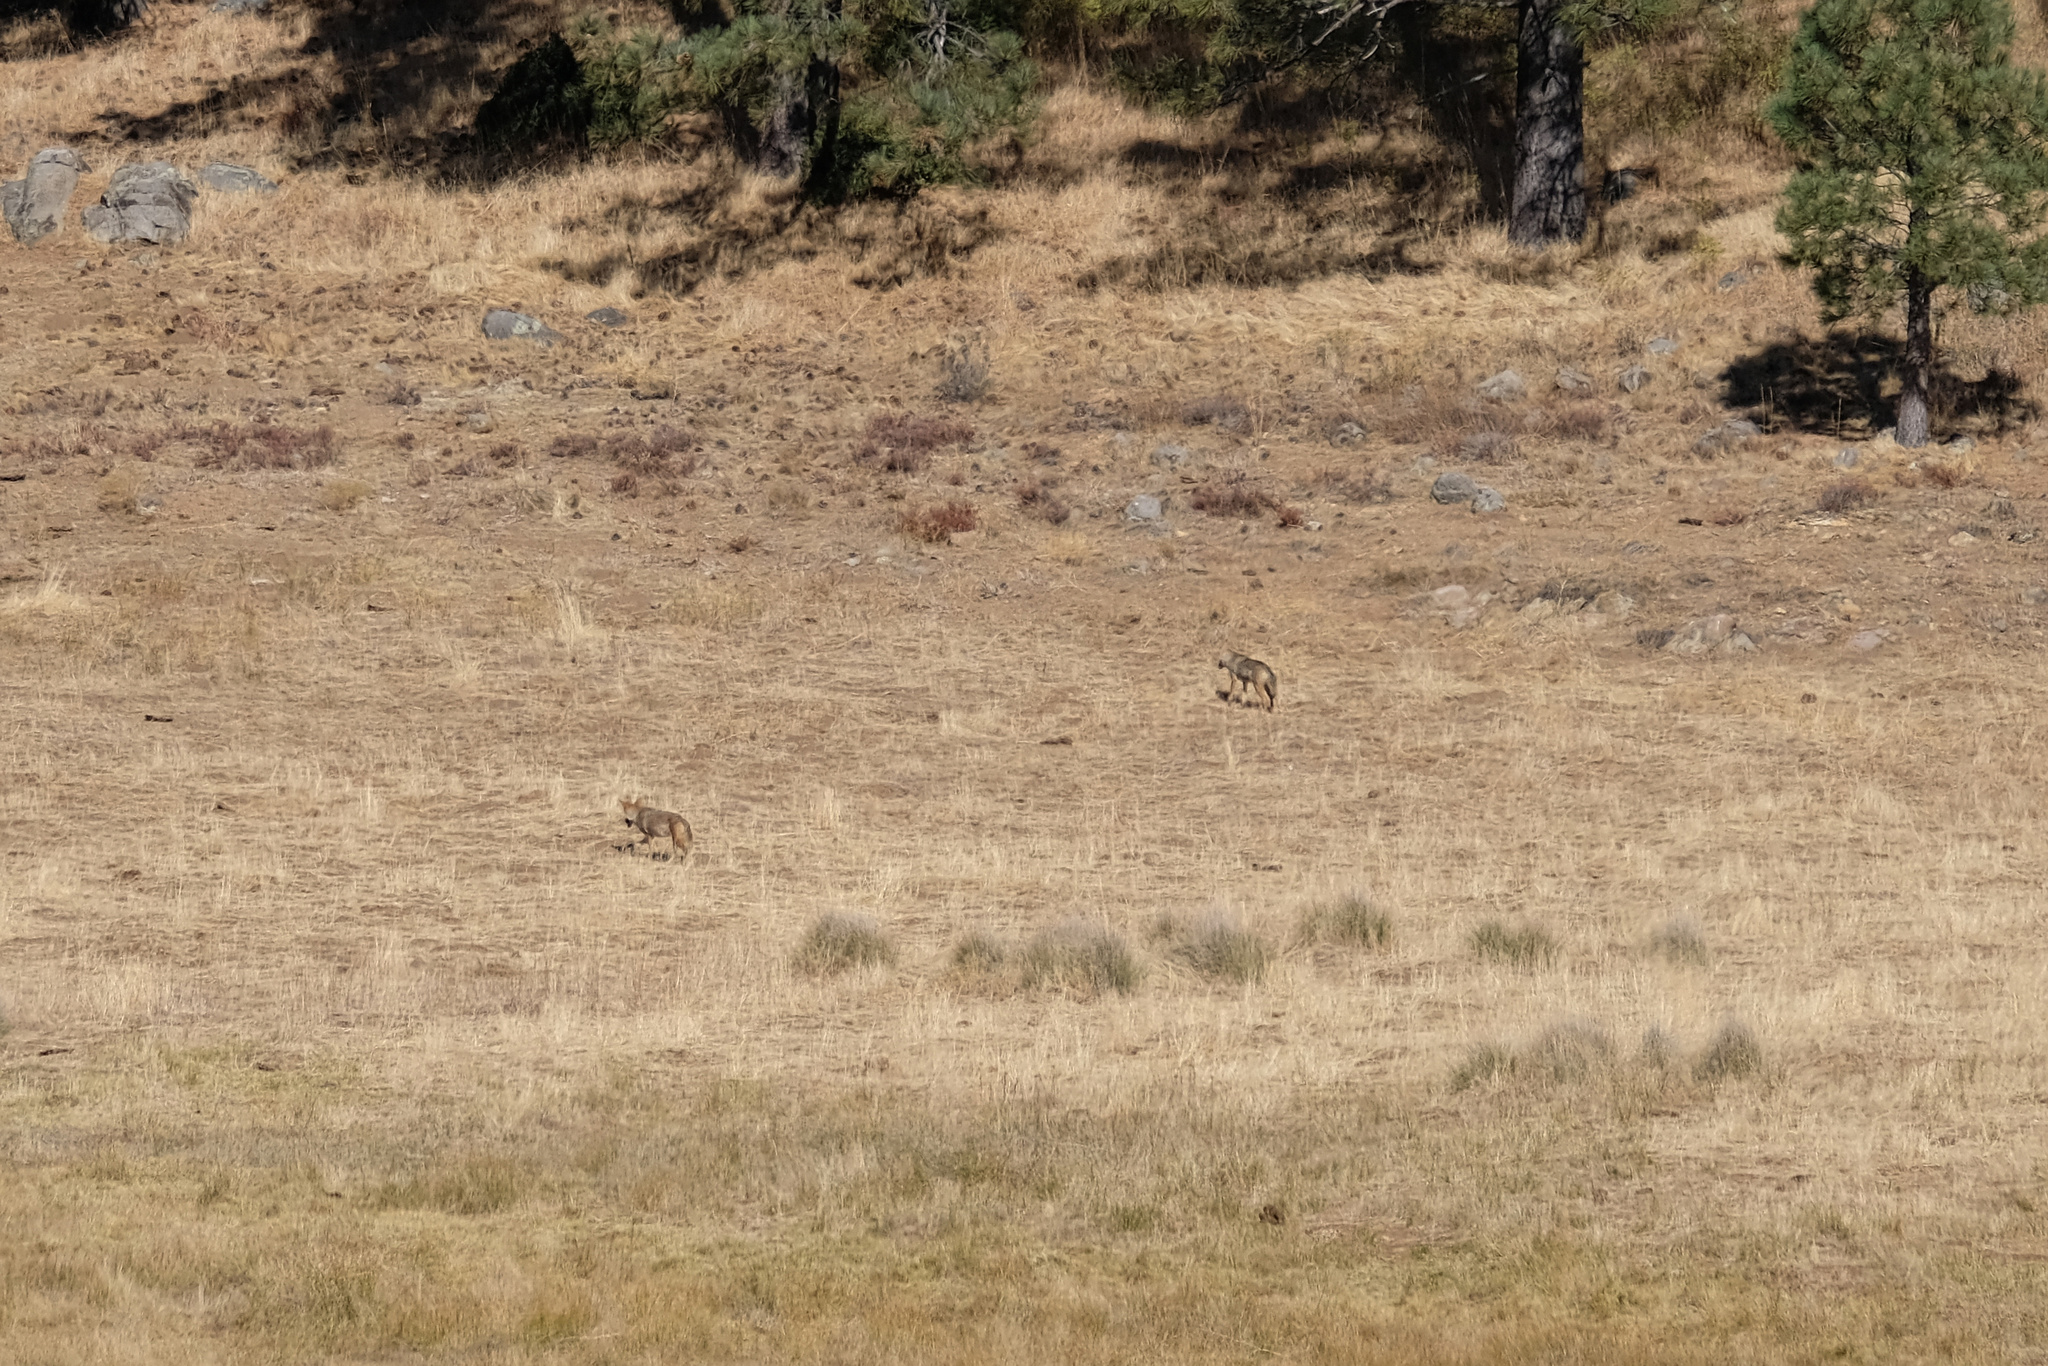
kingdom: Animalia
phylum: Chordata
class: Mammalia
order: Carnivora
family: Canidae
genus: Canis
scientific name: Canis latrans
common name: Coyote
